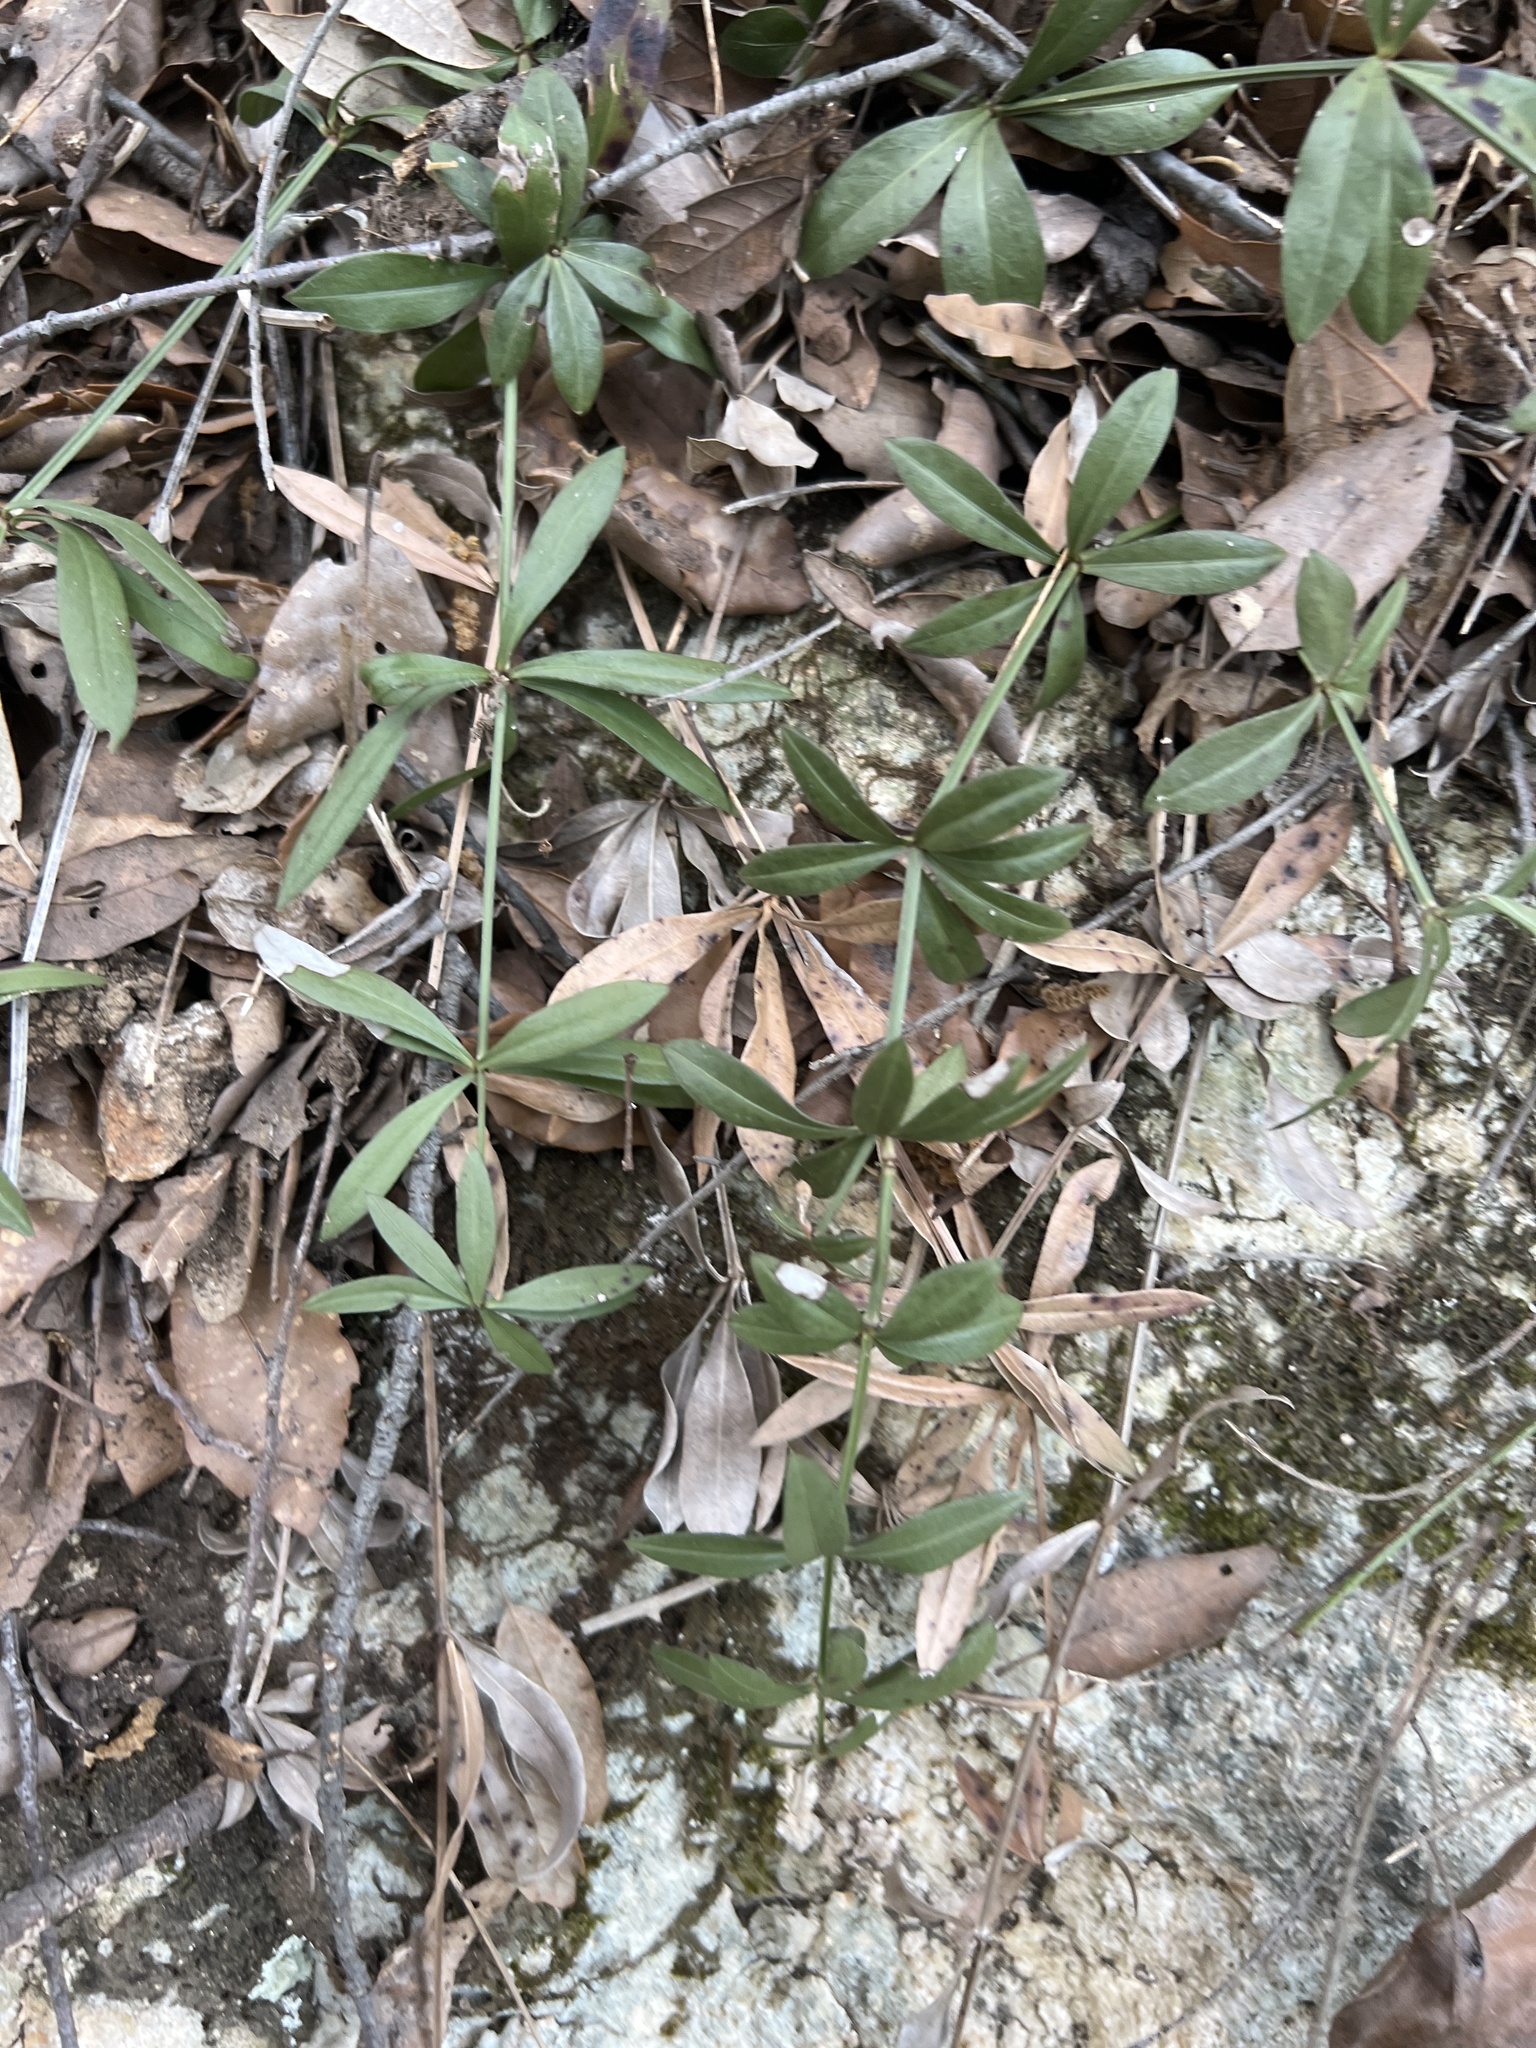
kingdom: Plantae
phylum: Tracheophyta
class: Magnoliopsida
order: Gentianales
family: Rubiaceae
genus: Rubia
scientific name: Rubia peregrina
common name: Wild madder
